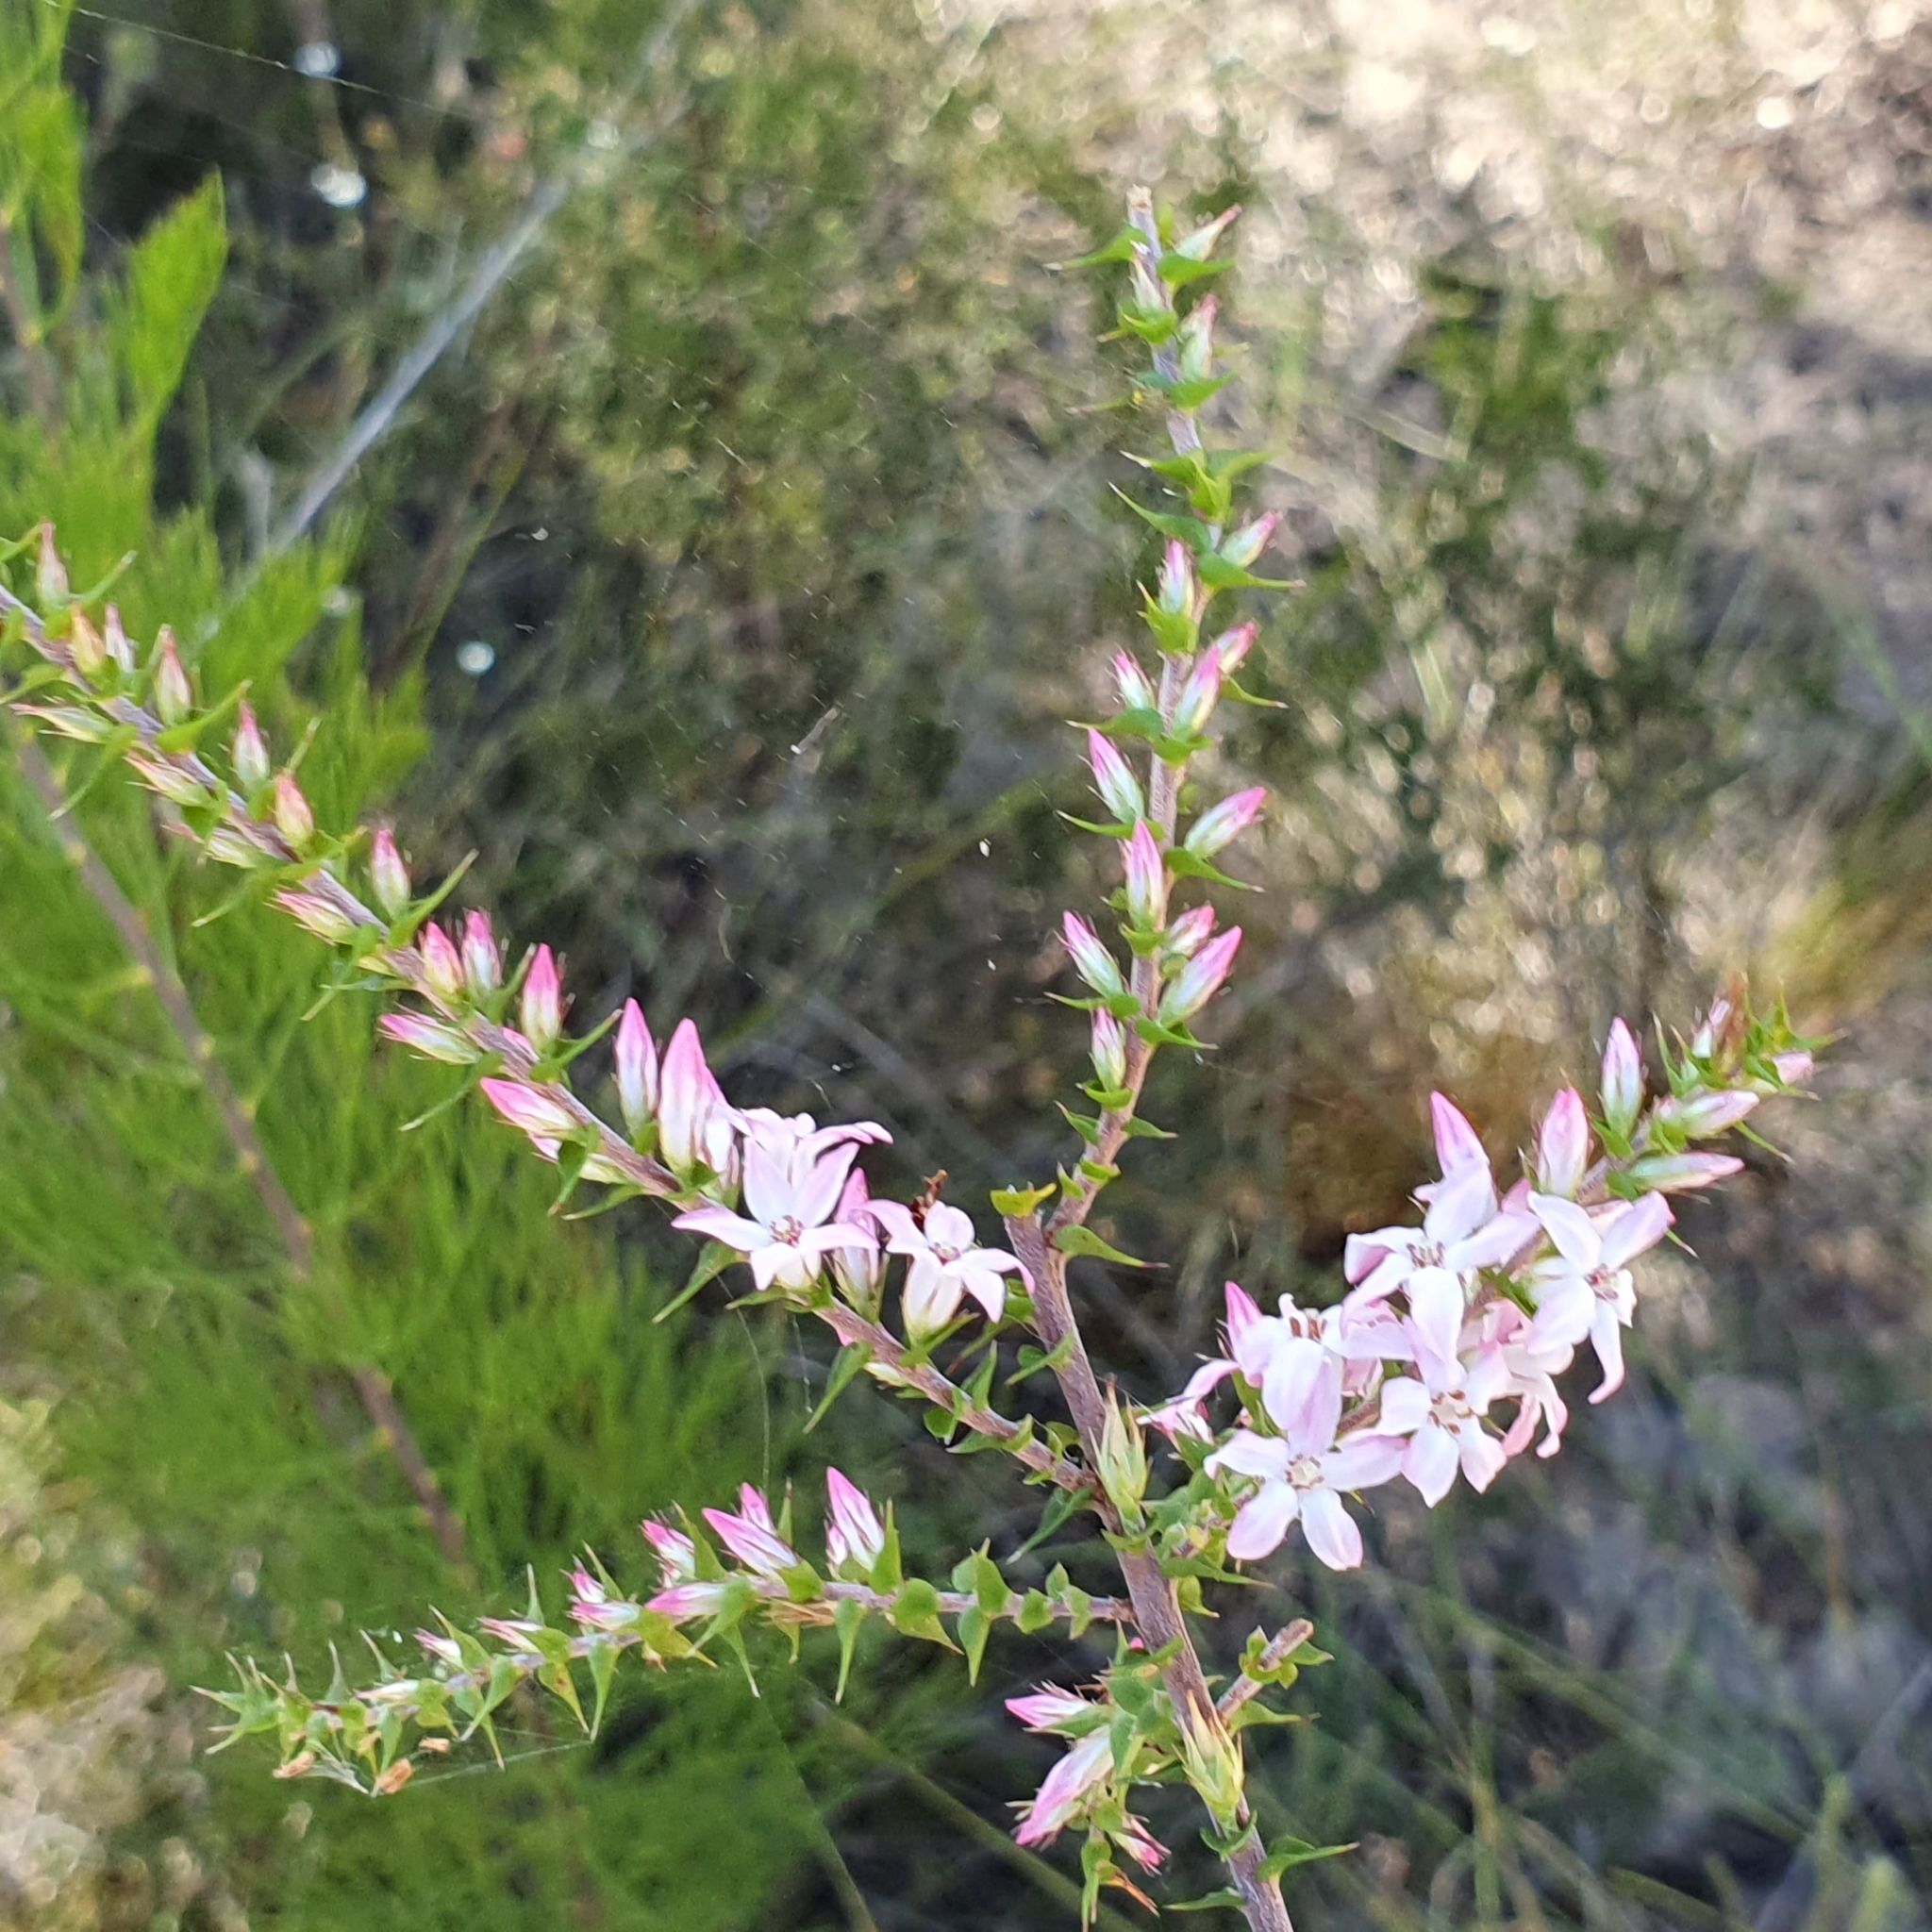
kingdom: Plantae
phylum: Tracheophyta
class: Magnoliopsida
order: Ericales
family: Ericaceae
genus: Epacris
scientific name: Epacris pulchella
